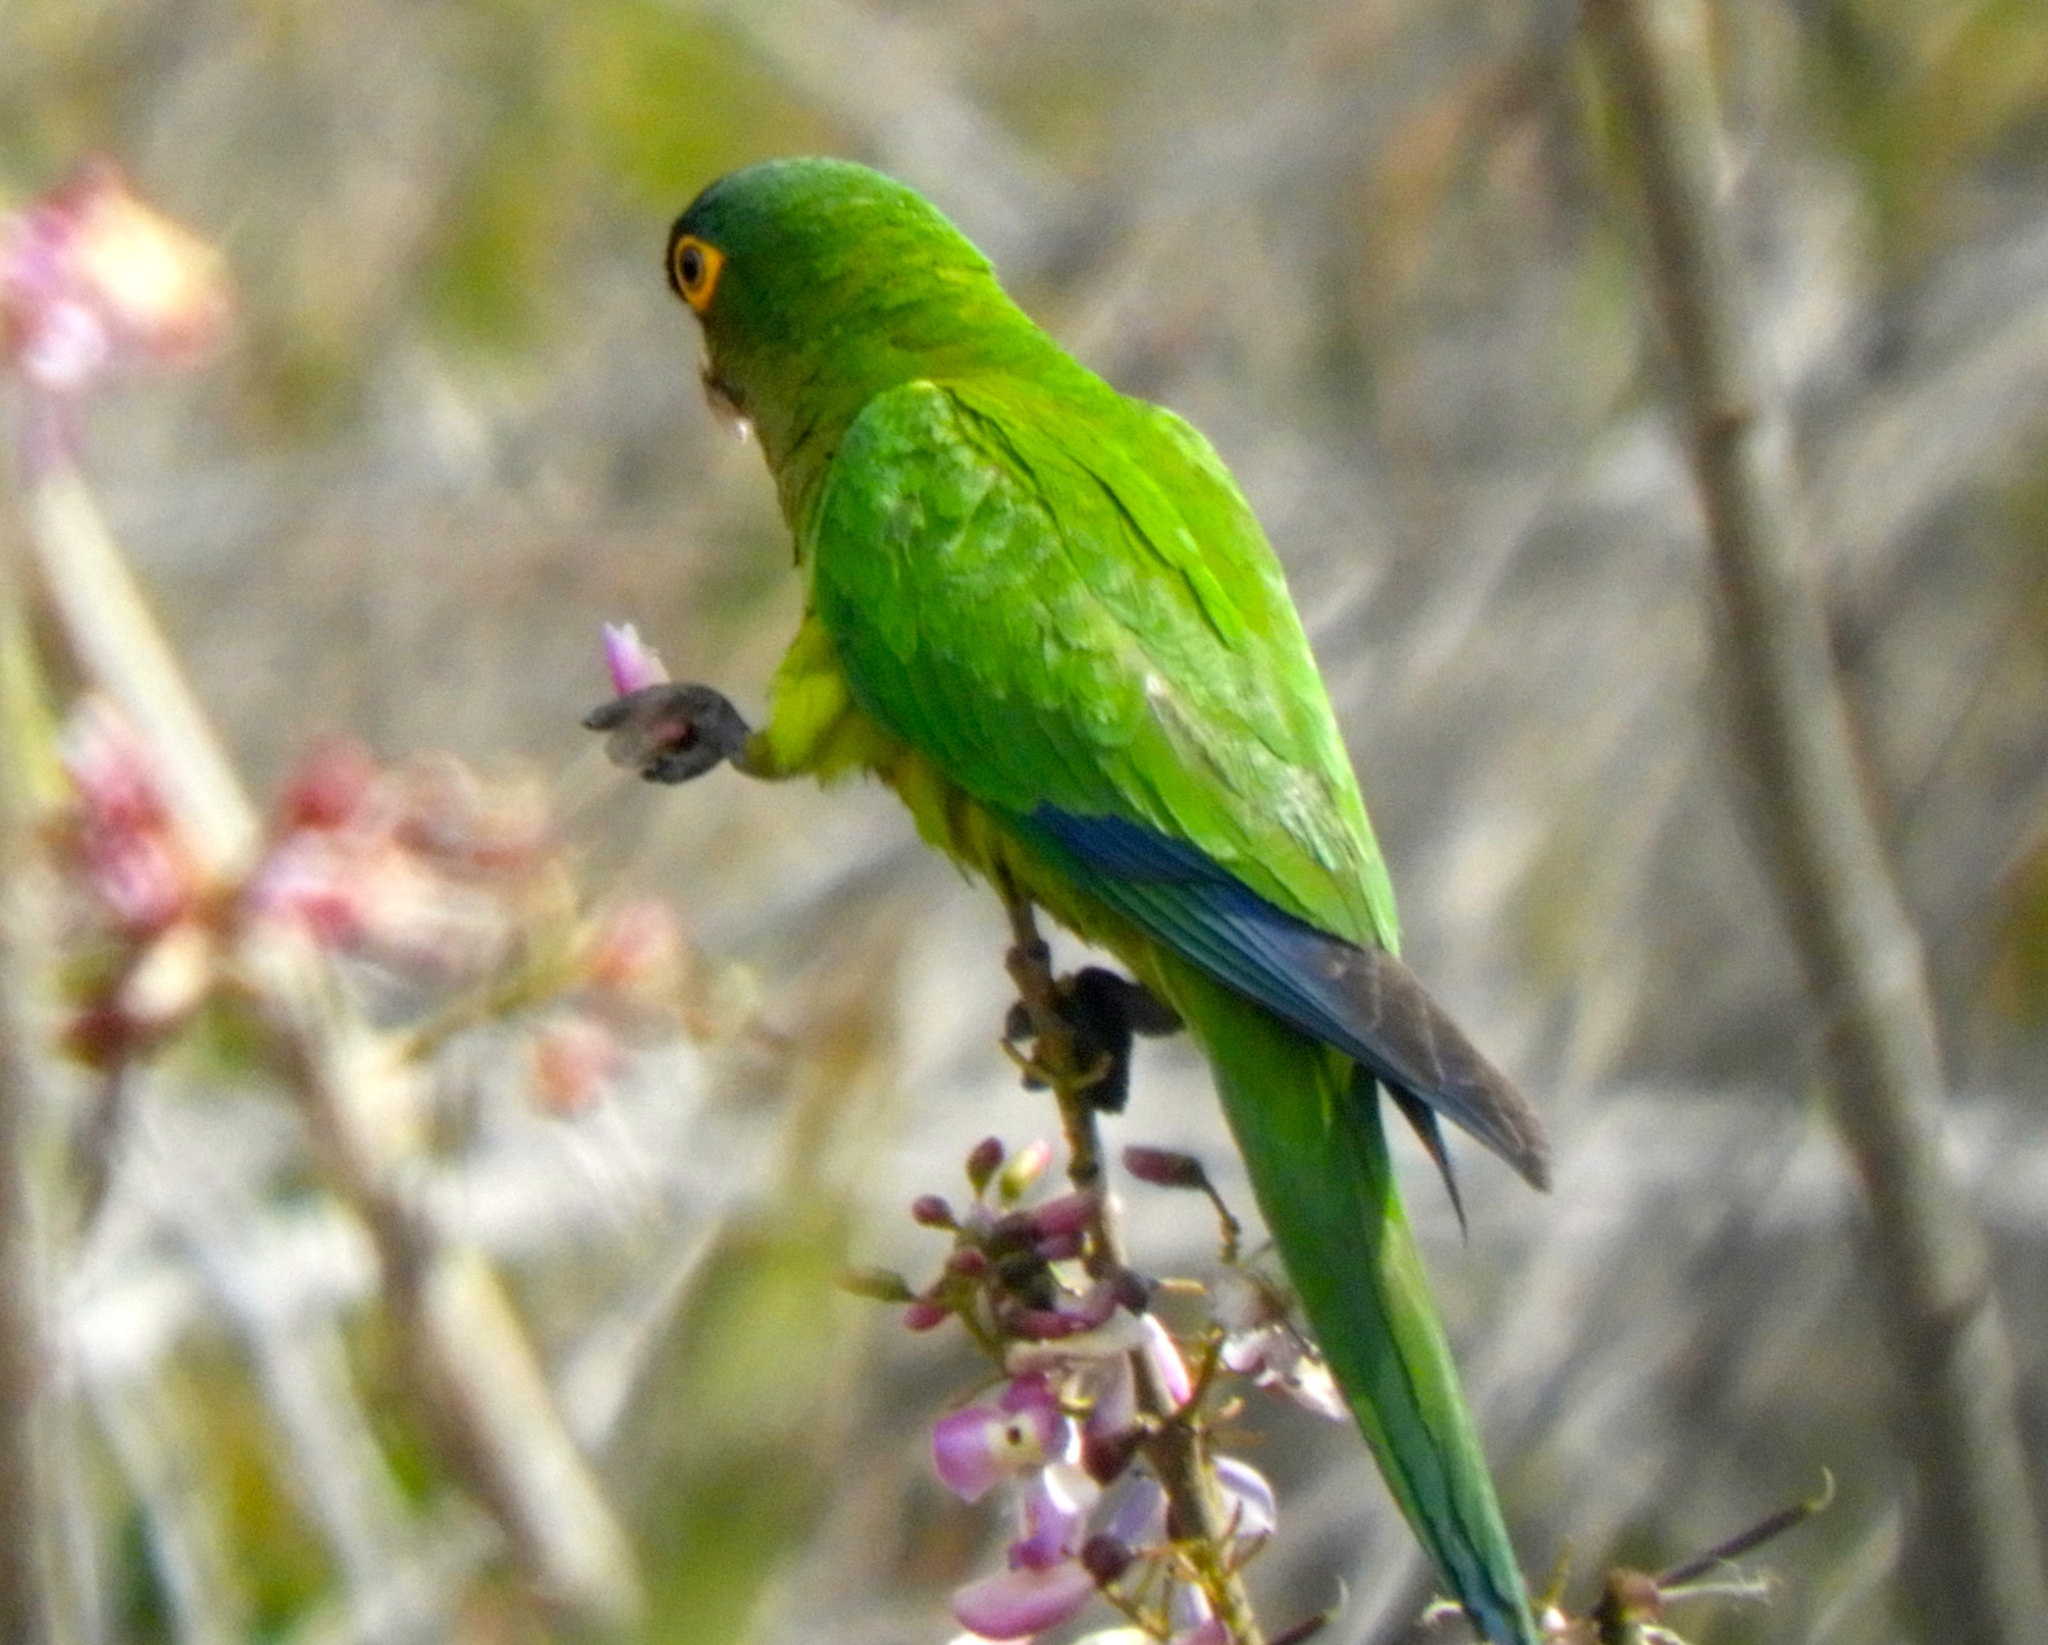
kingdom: Animalia
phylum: Chordata
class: Aves
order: Psittaciformes
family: Psittacidae
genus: Aratinga
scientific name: Aratinga canicularis
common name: Orange-fronted parakeet
